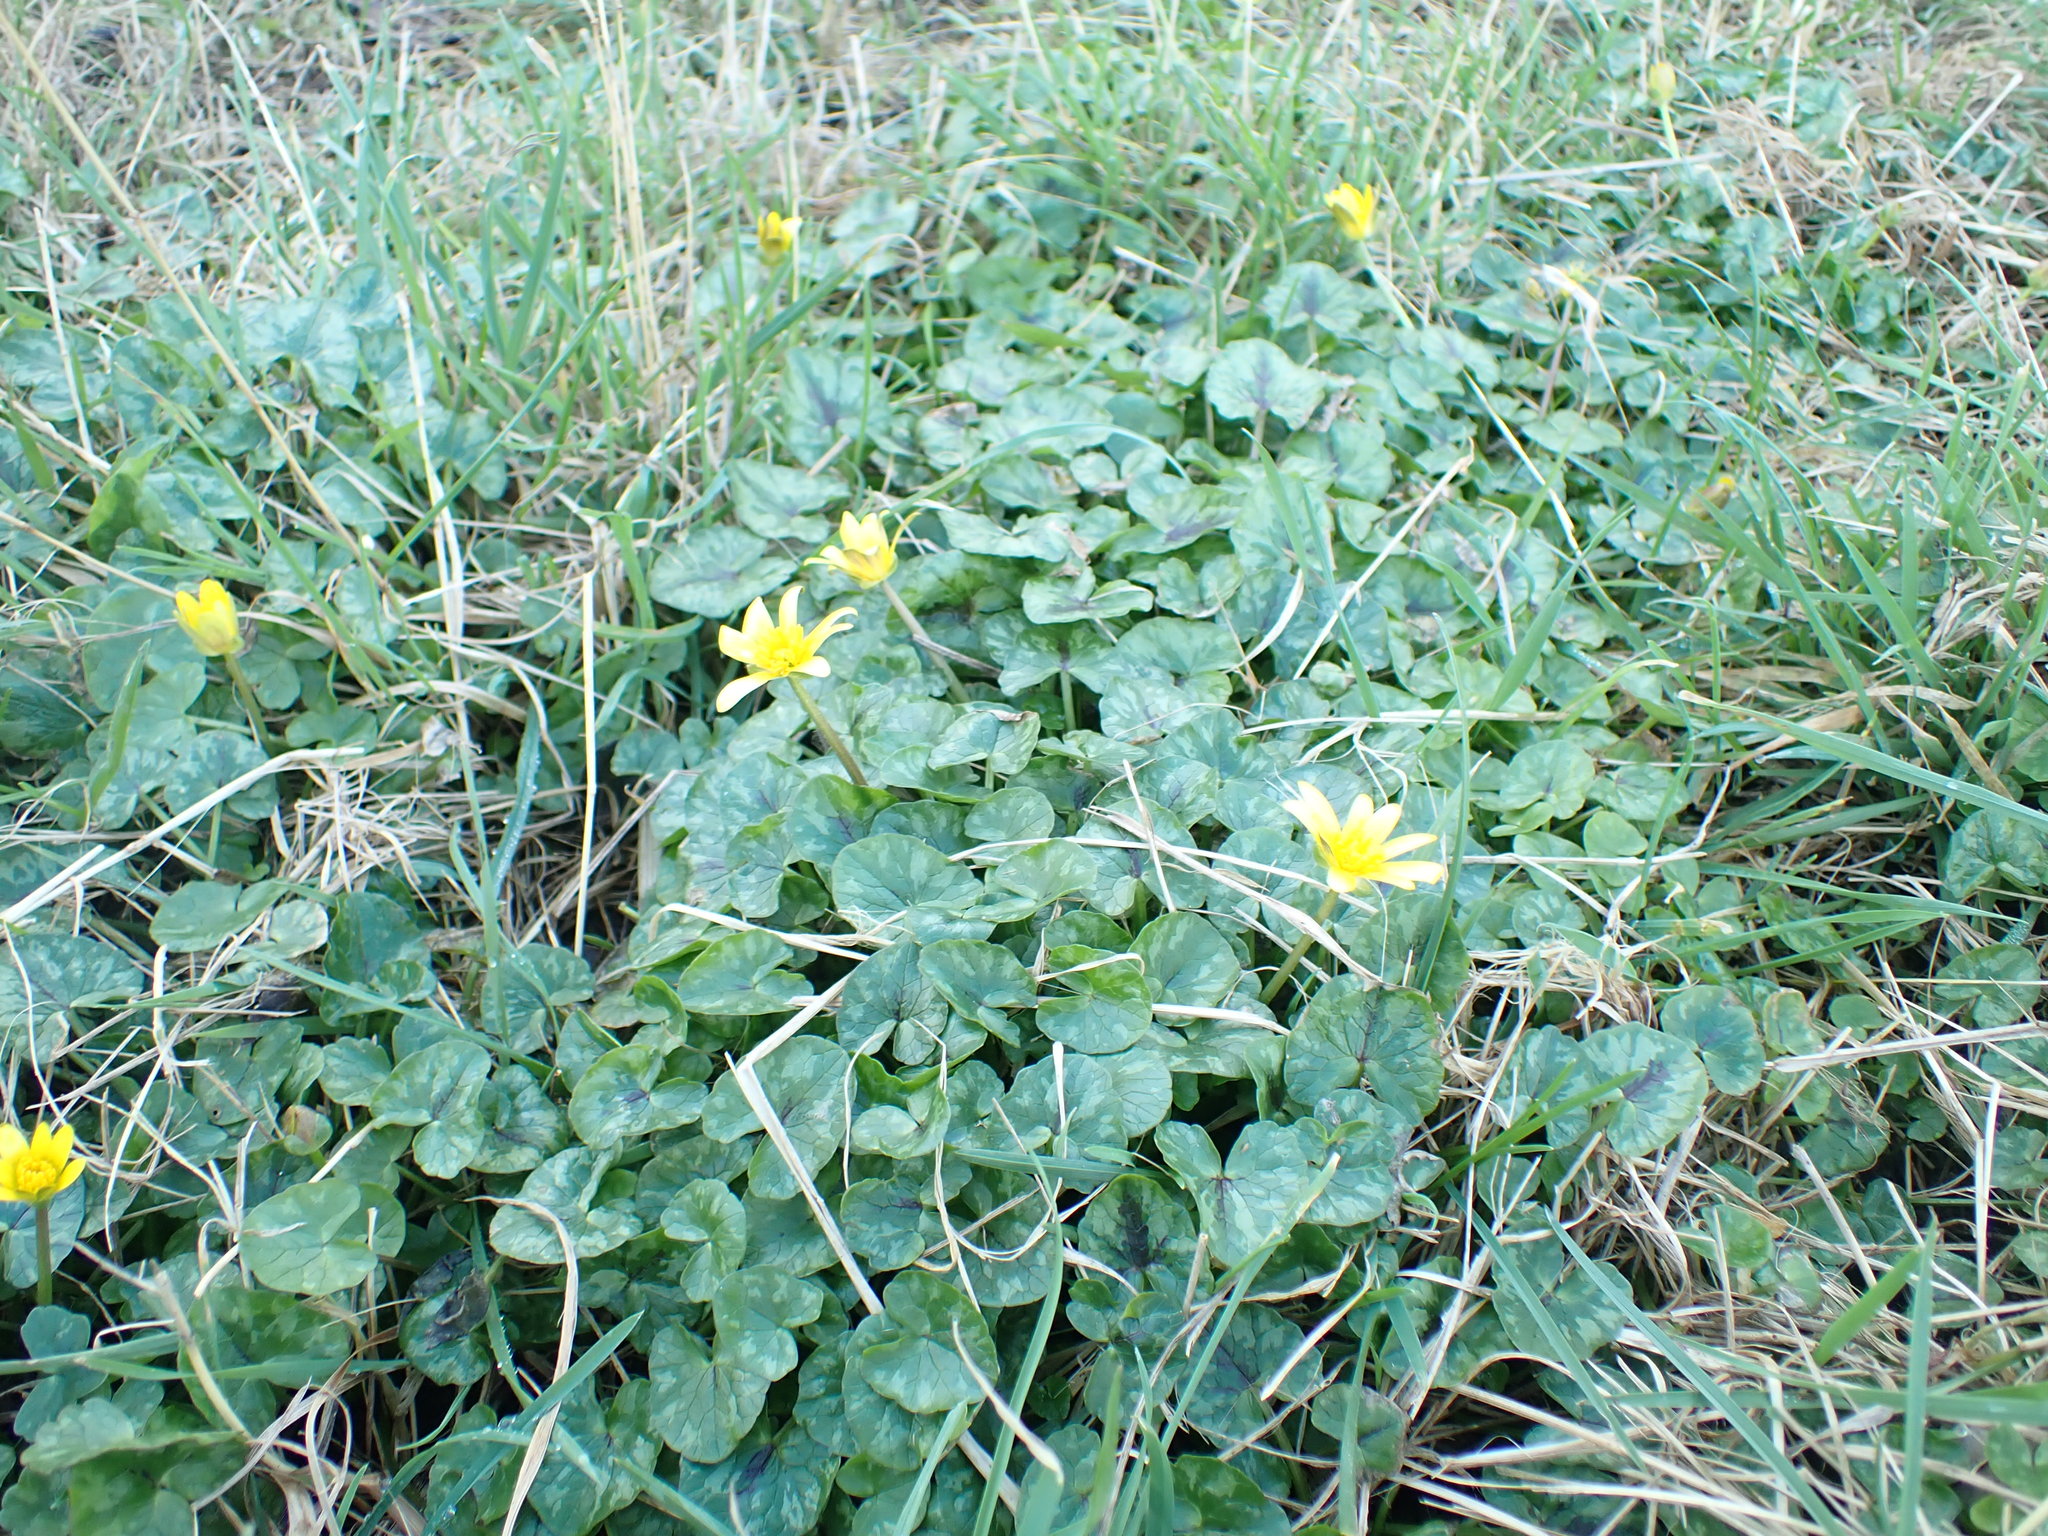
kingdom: Plantae
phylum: Tracheophyta
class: Magnoliopsida
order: Ranunculales
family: Ranunculaceae
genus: Ficaria
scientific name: Ficaria verna
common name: Lesser celandine
